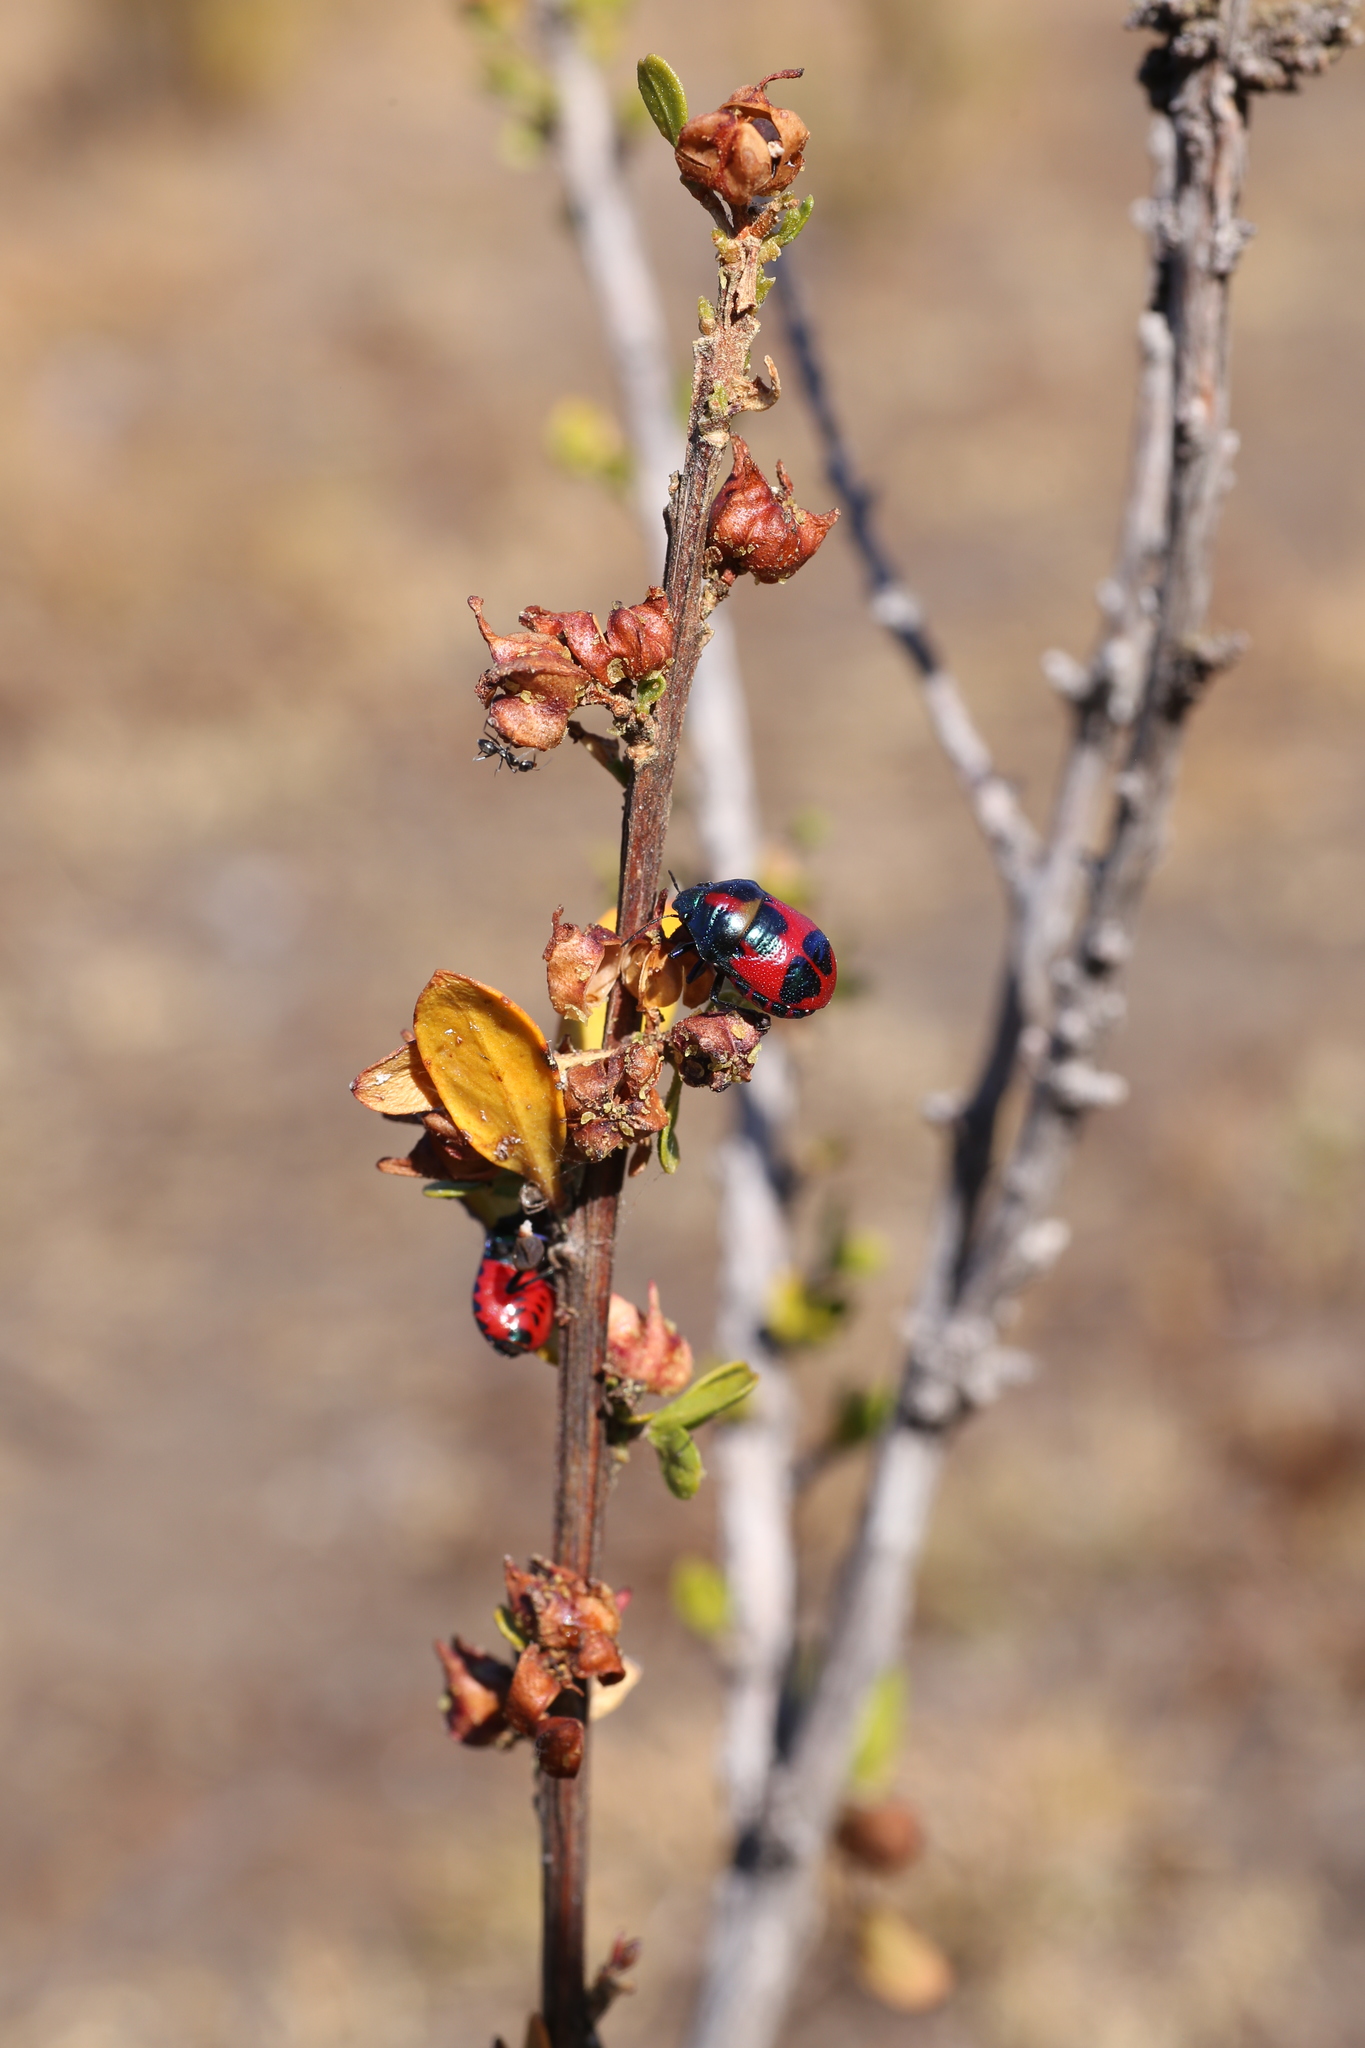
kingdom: Animalia
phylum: Arthropoda
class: Insecta
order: Hemiptera
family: Scutelleridae
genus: Choerocoris
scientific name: Choerocoris paganus
